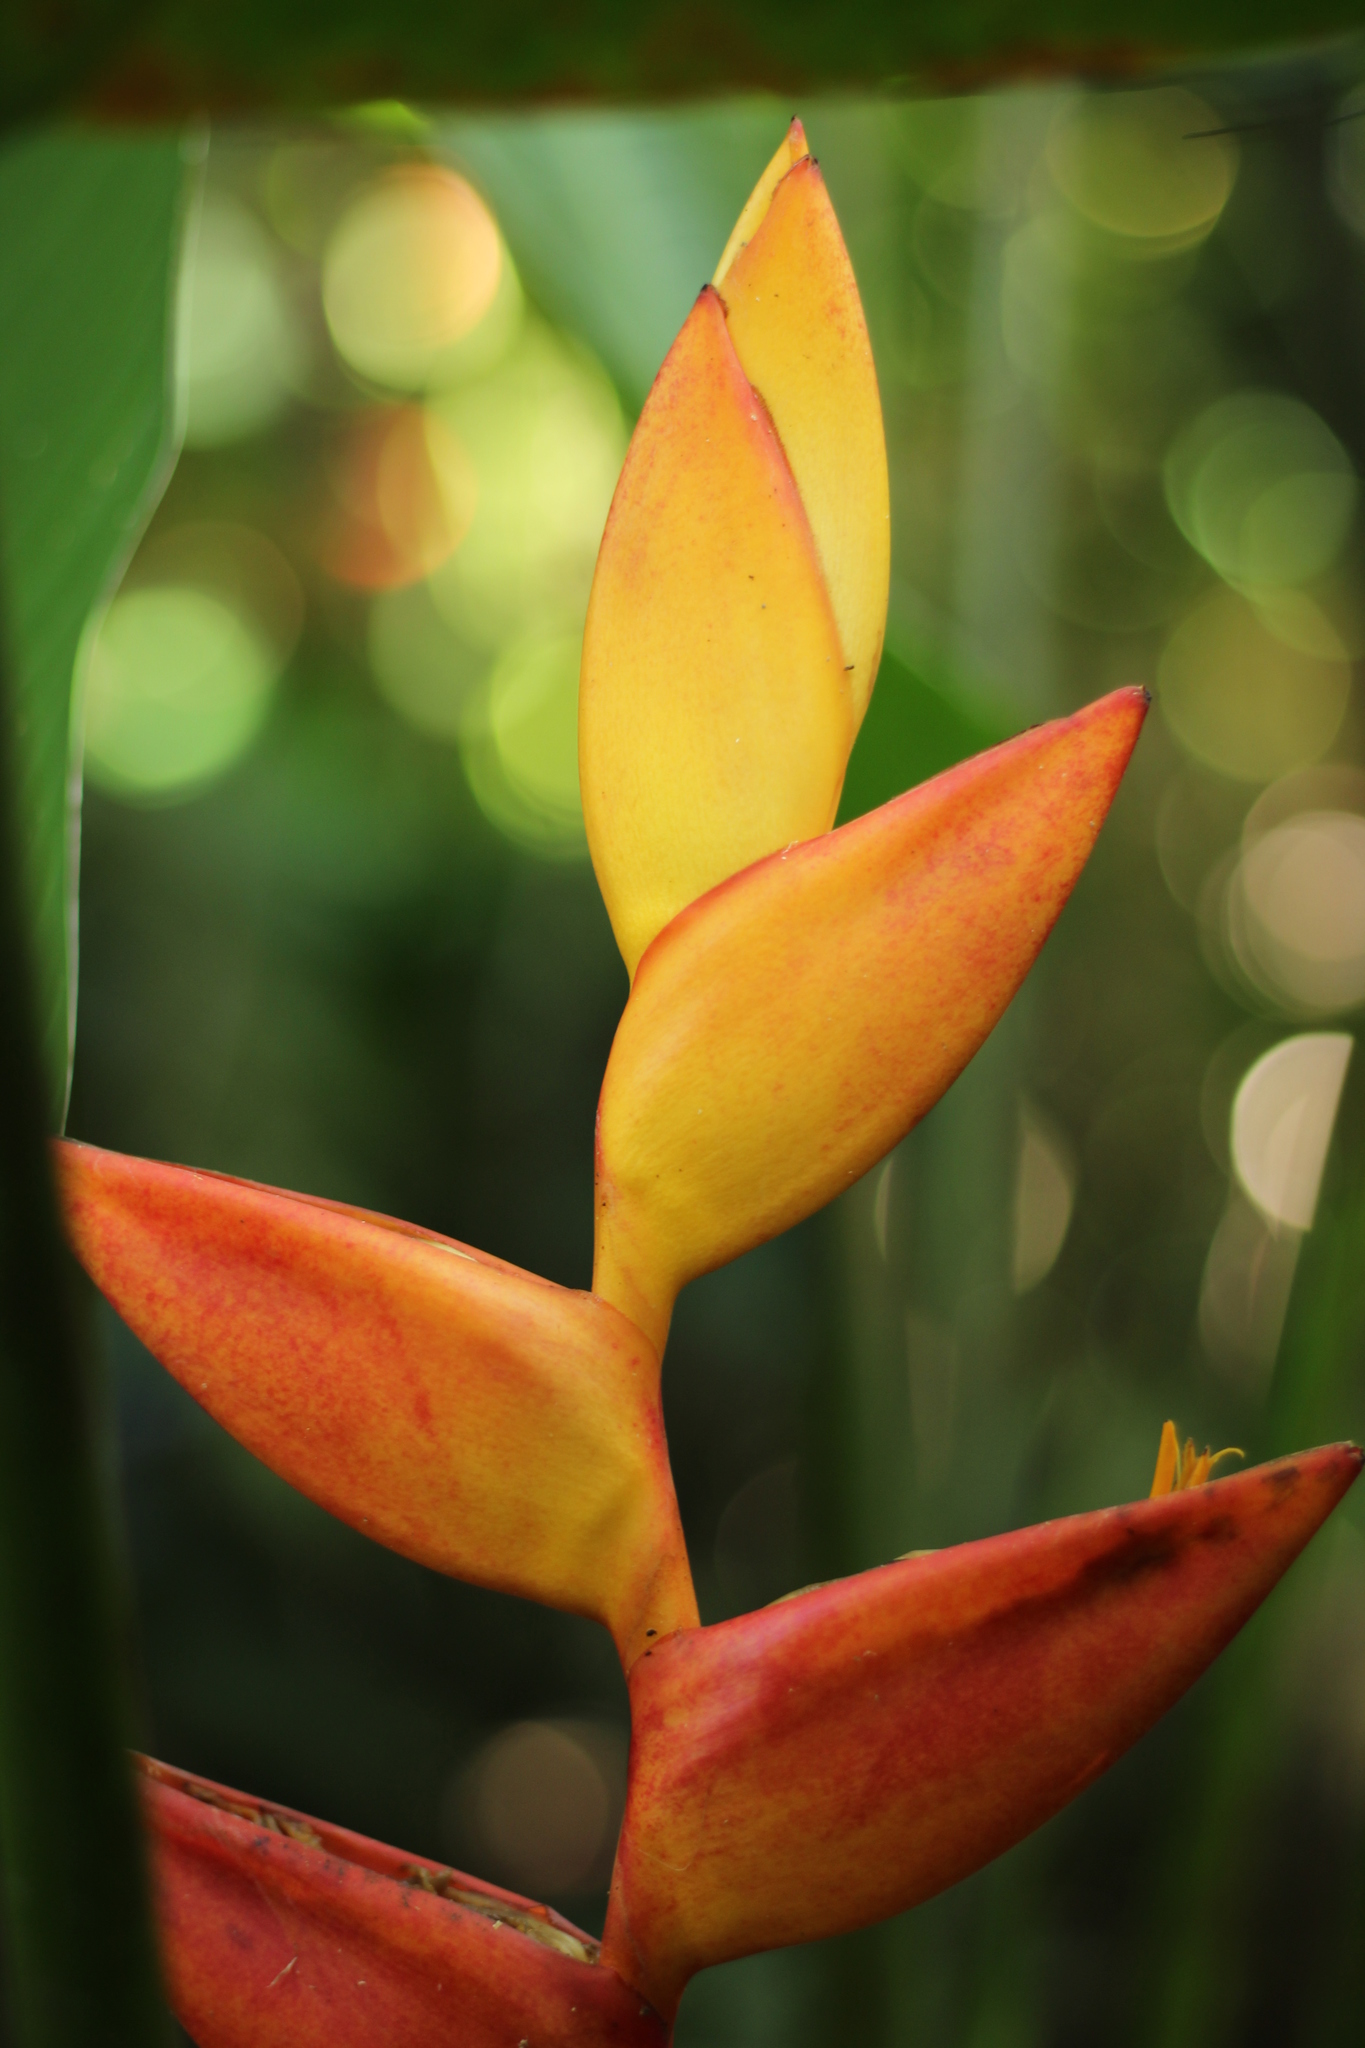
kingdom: Plantae
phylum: Tracheophyta
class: Liliopsida
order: Zingiberales
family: Heliconiaceae
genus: Heliconia
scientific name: Heliconia uxpanapensis
